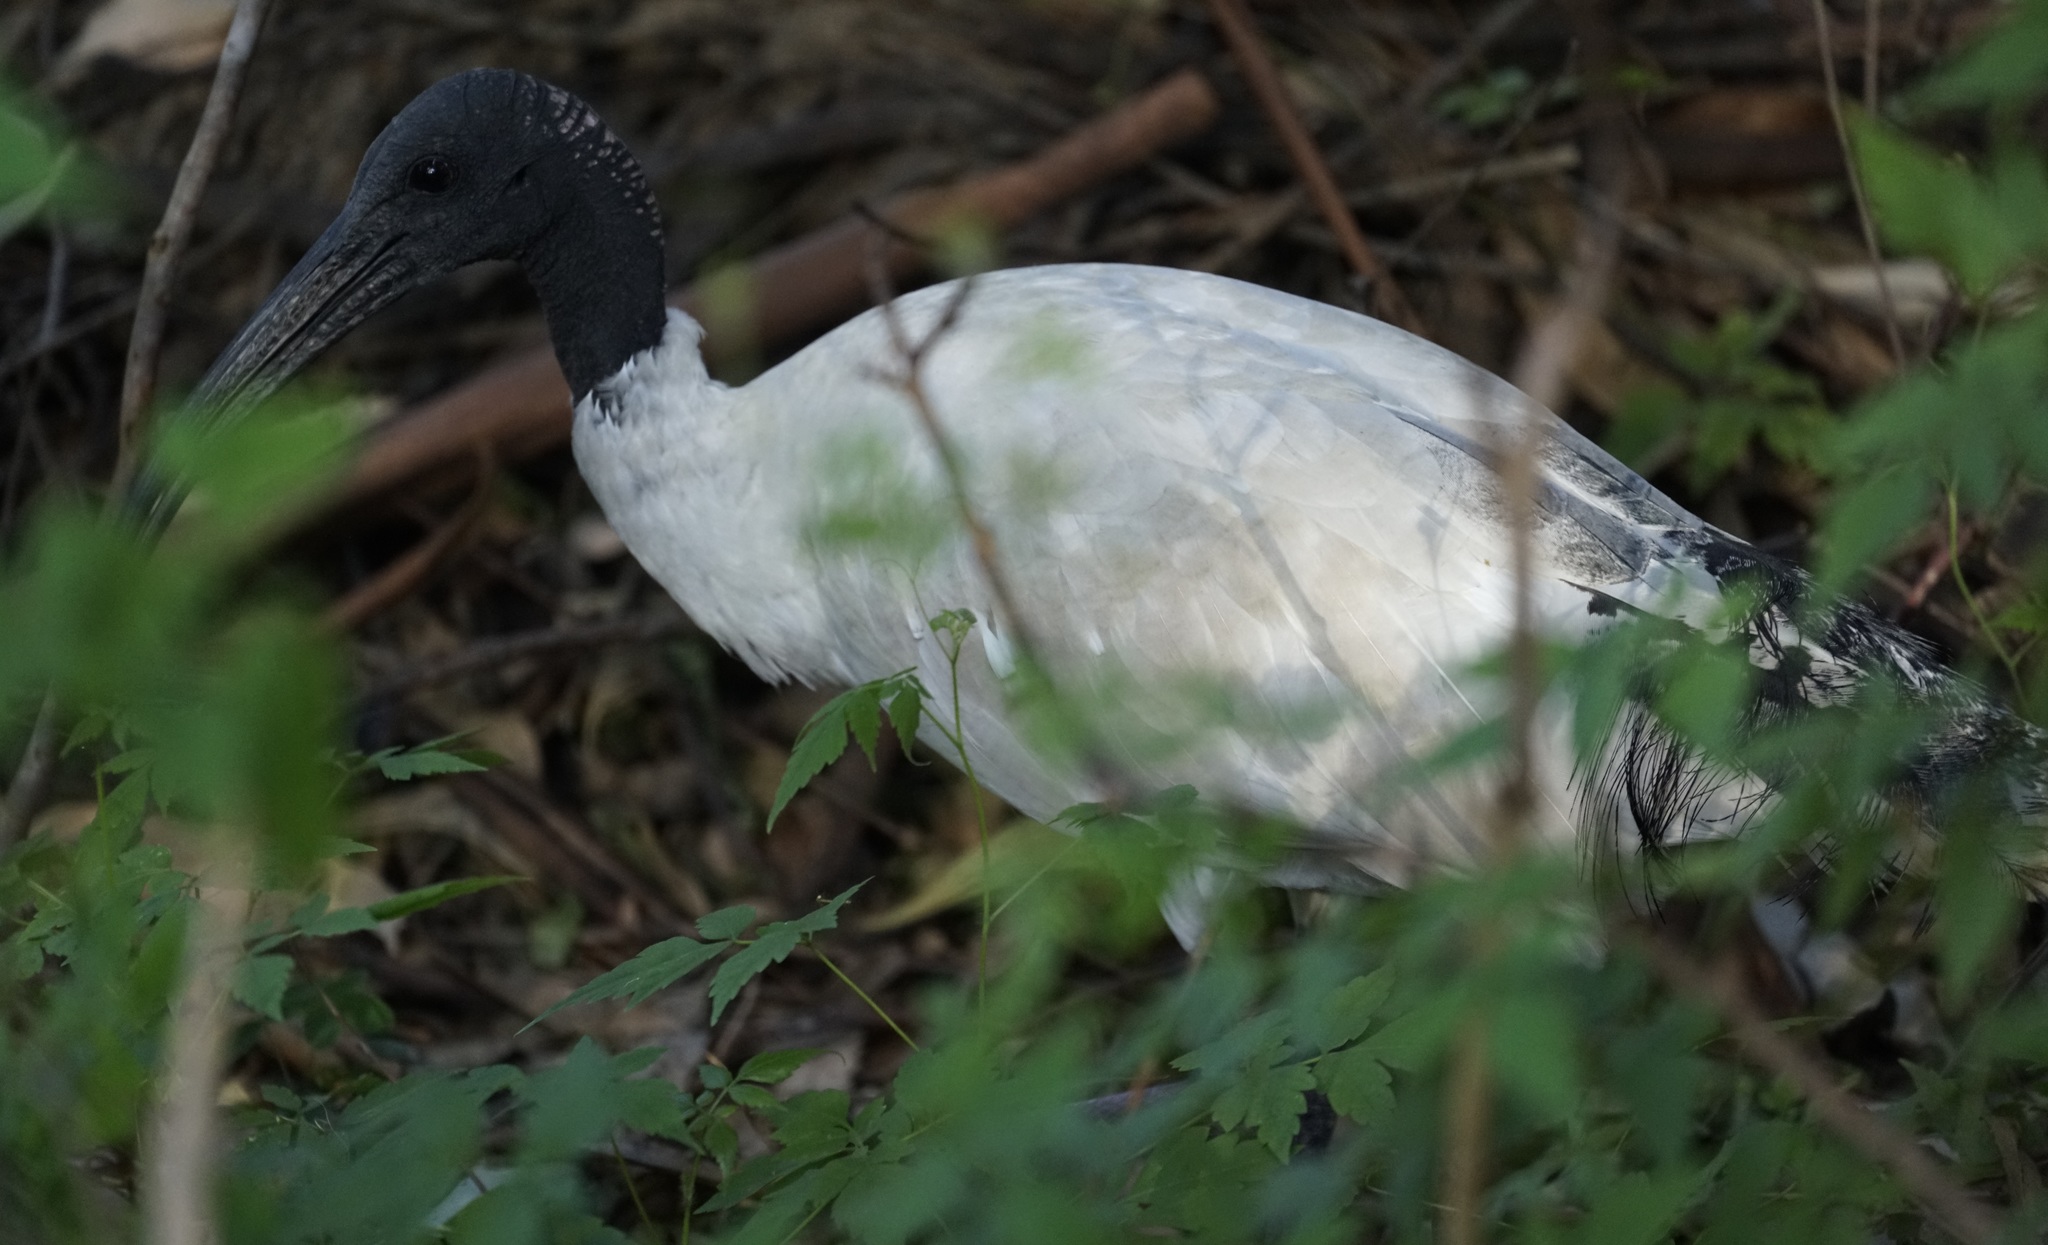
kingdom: Animalia
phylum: Chordata
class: Aves
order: Pelecaniformes
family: Threskiornithidae
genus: Threskiornis
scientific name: Threskiornis molucca
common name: Australian white ibis
